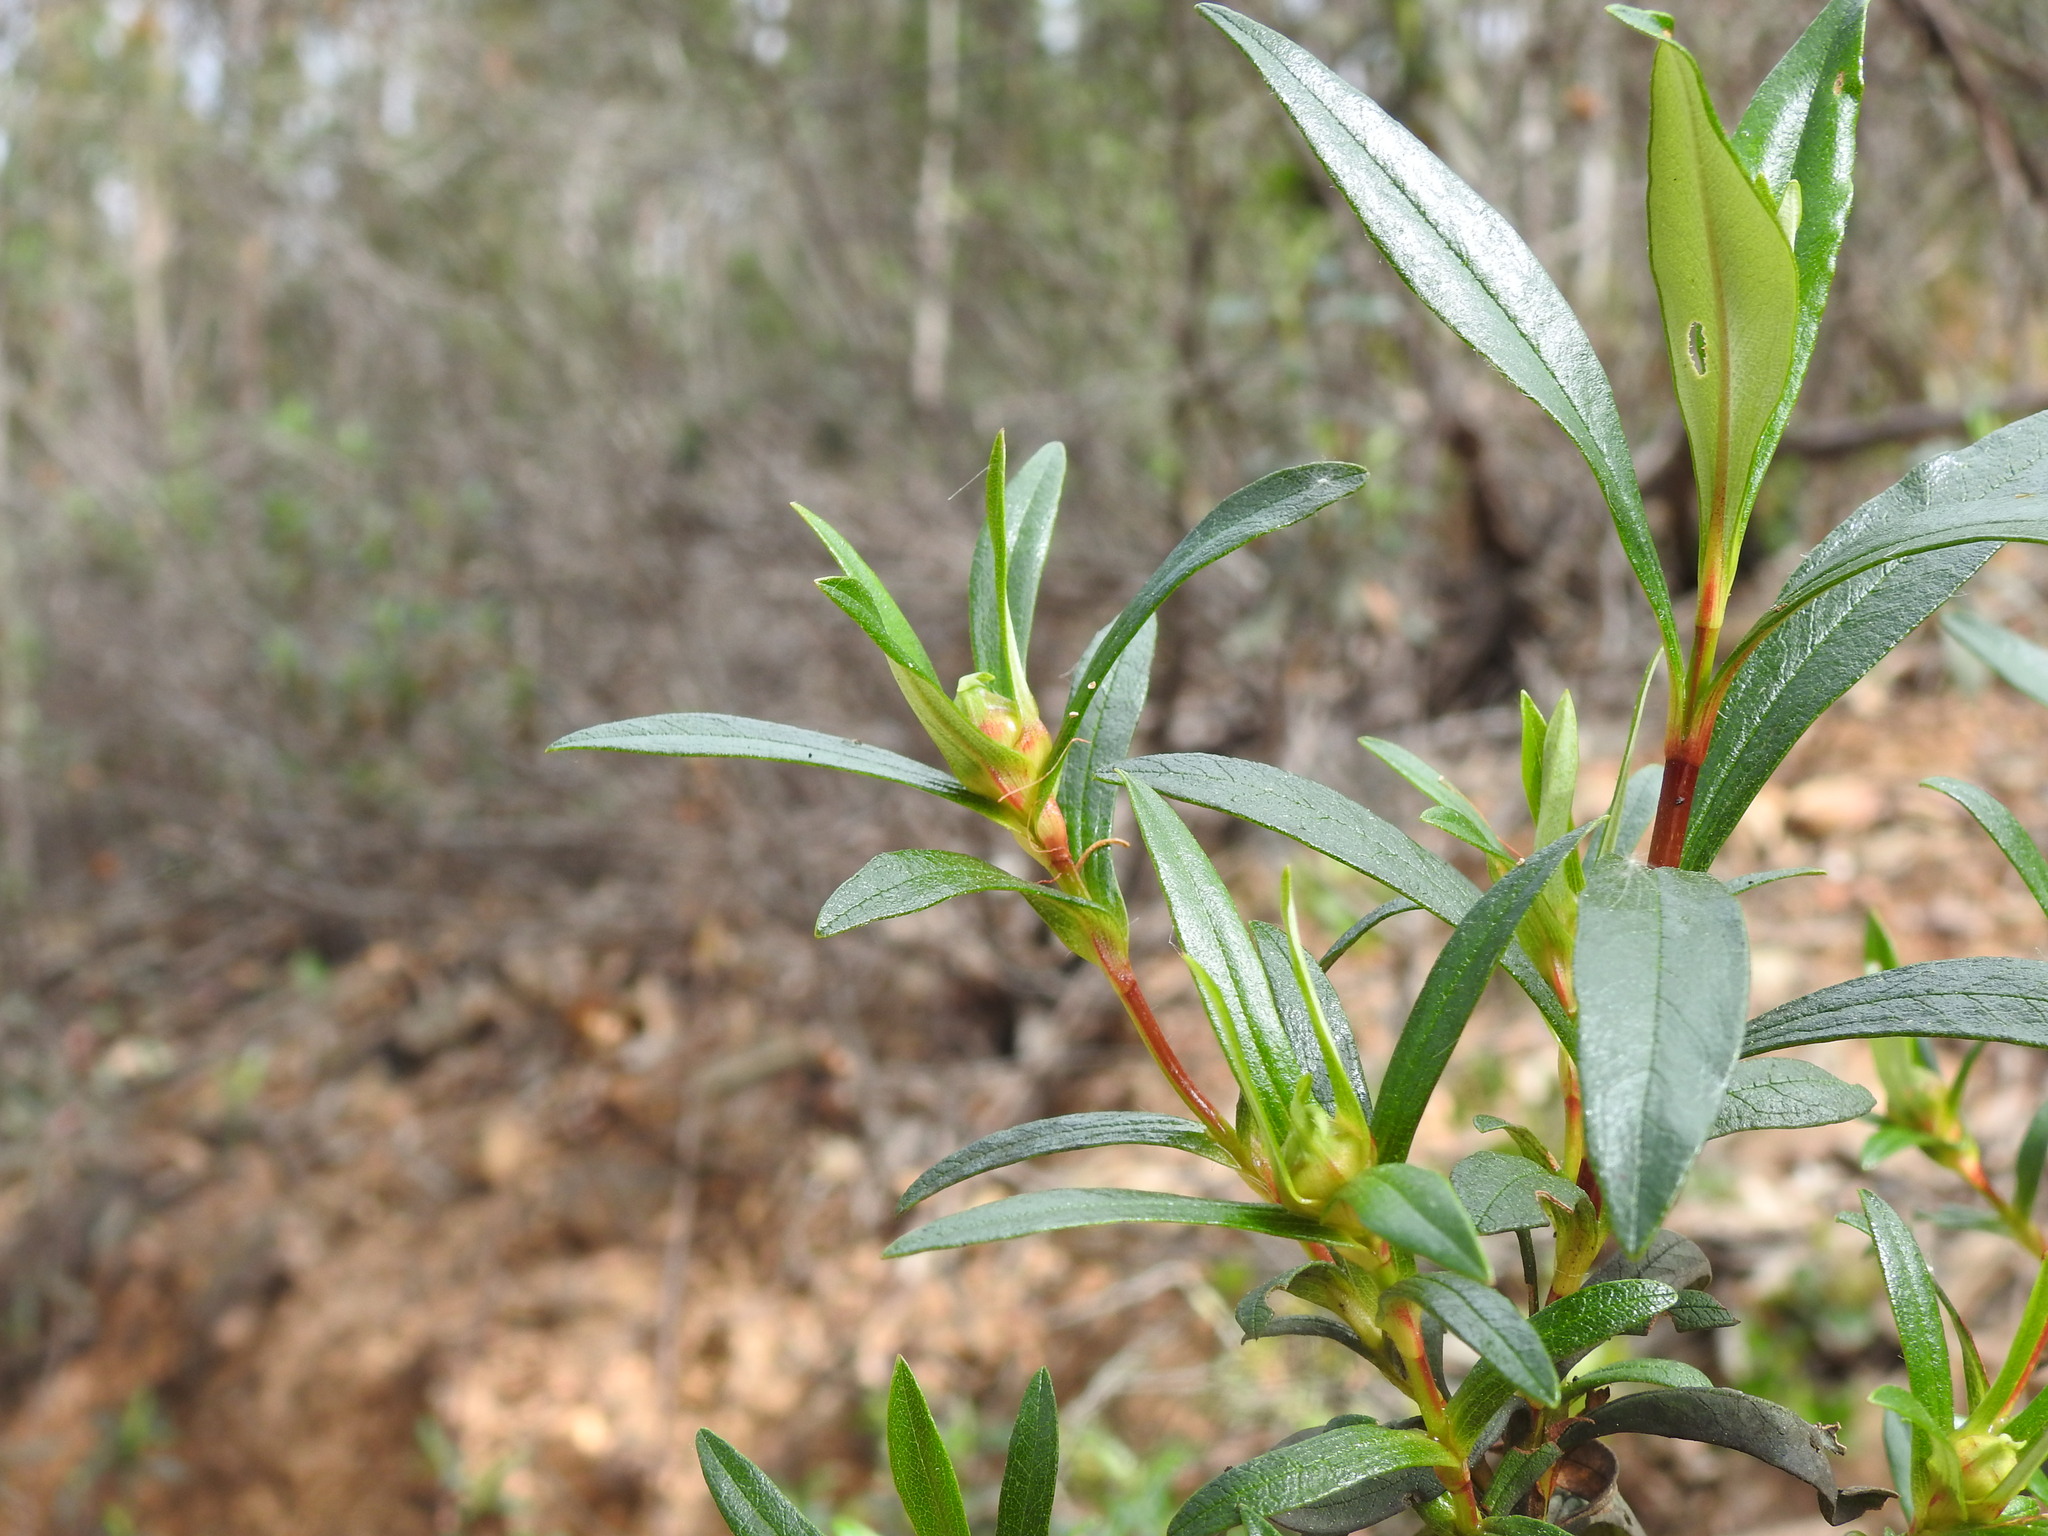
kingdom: Plantae
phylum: Tracheophyta
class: Magnoliopsida
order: Malvales
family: Cistaceae
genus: Cistus
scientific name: Cistus ladanifer
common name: Common gum cistus
